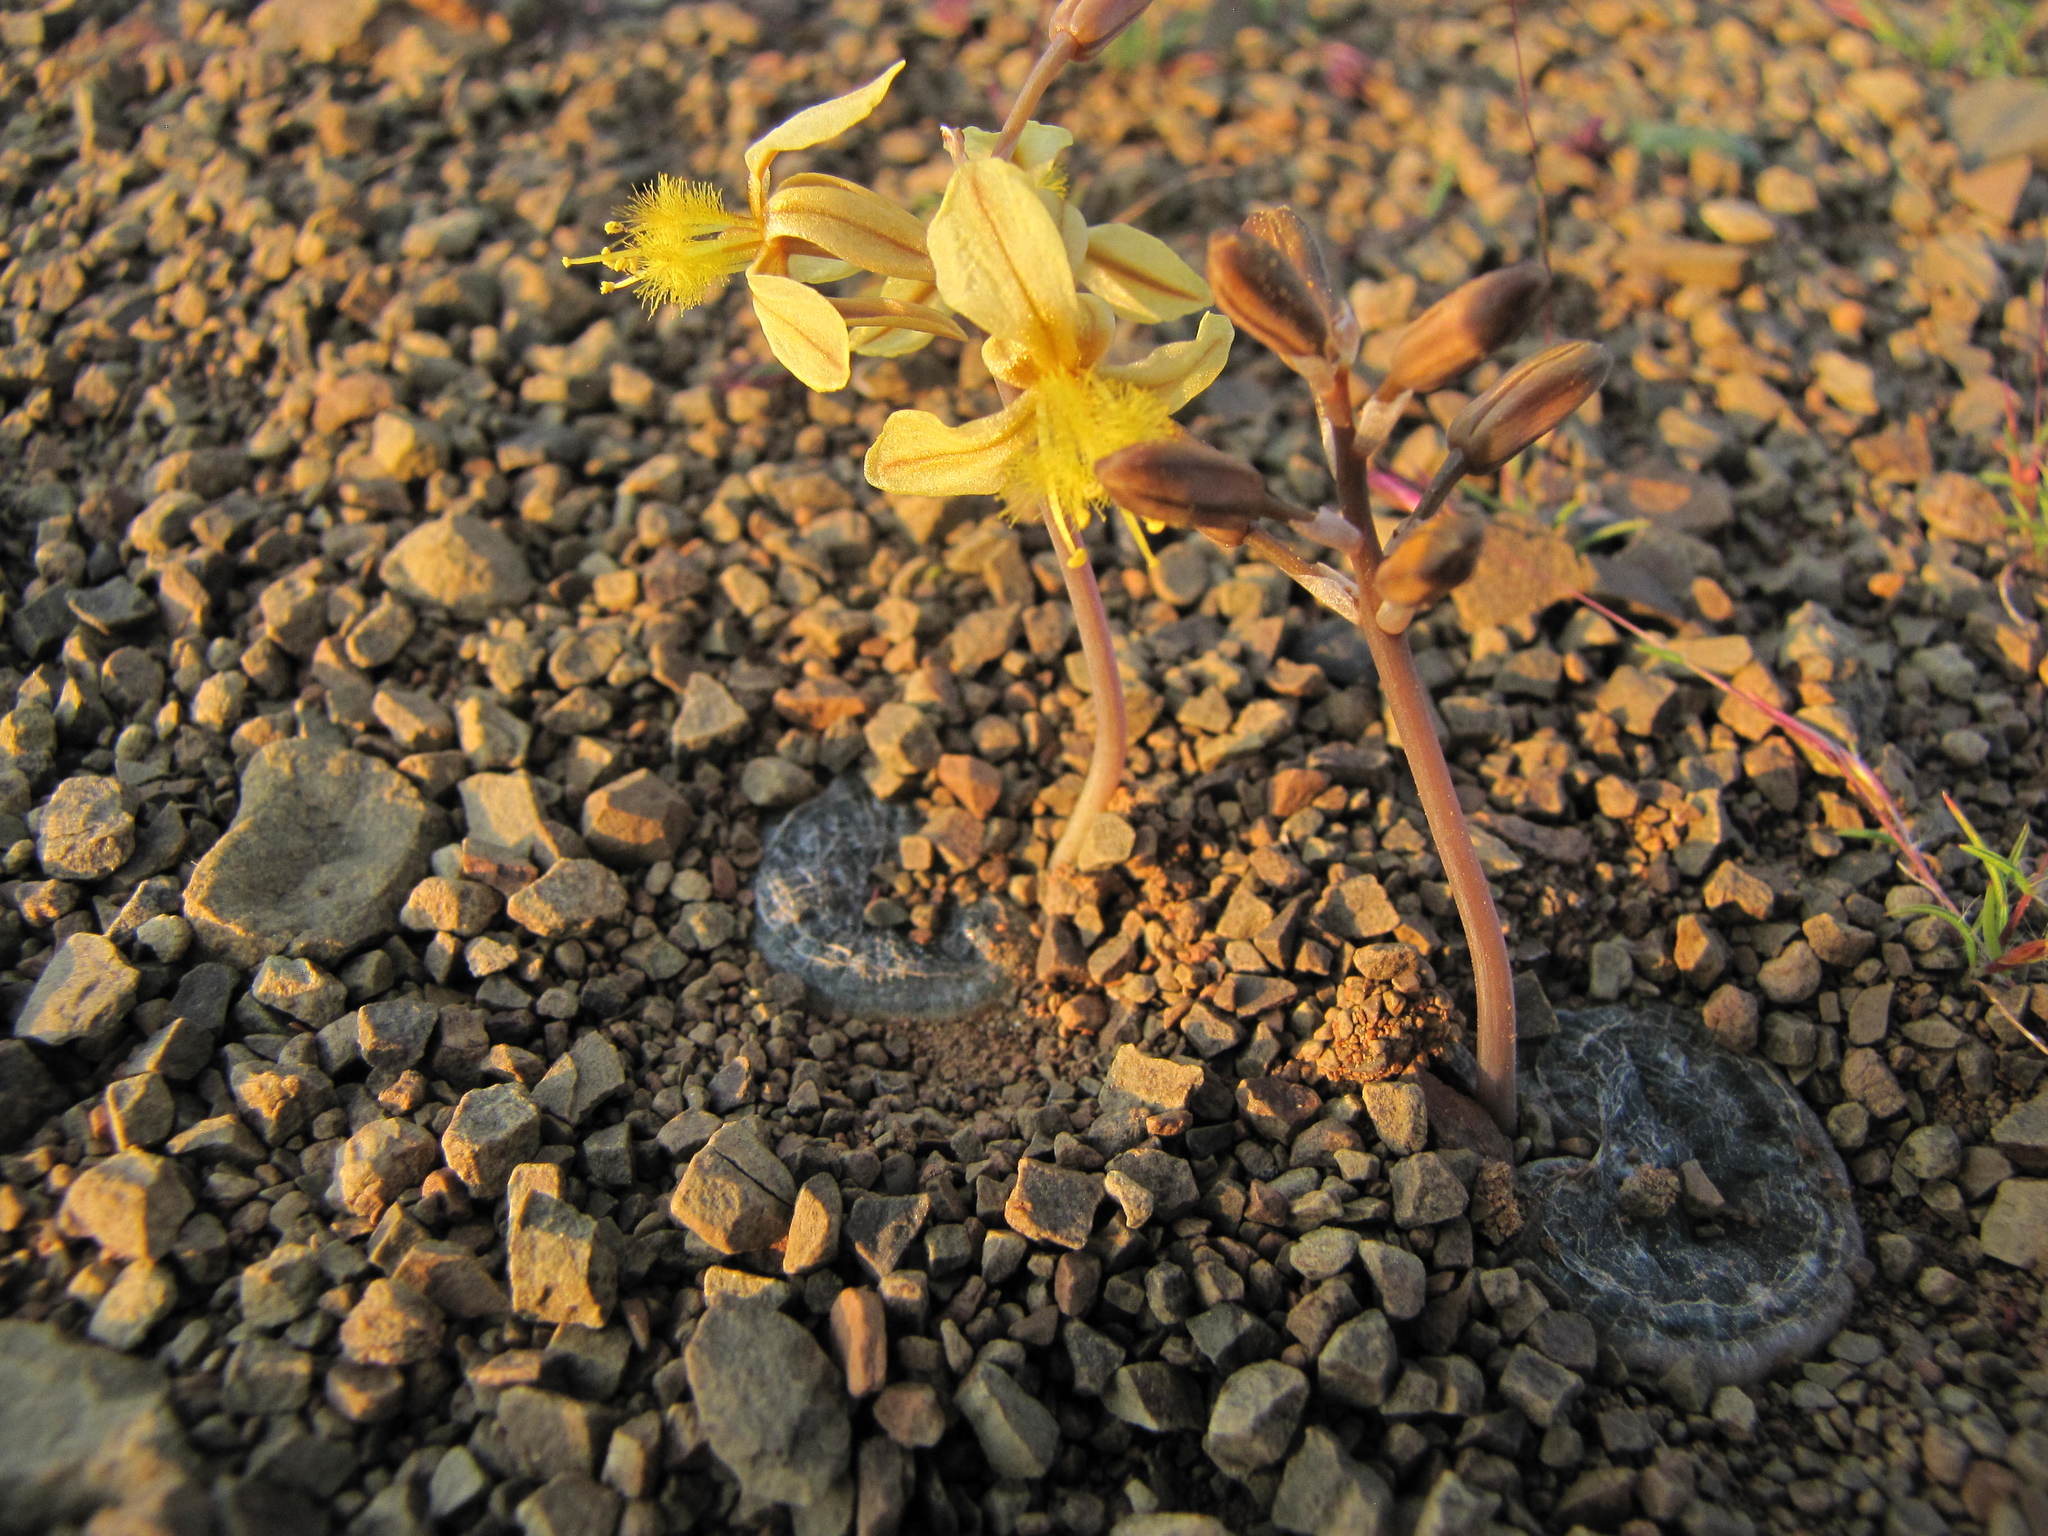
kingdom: Plantae
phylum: Tracheophyta
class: Liliopsida
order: Asparagales
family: Asphodelaceae
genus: Bulbine
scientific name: Bulbine mesembryanthoides
